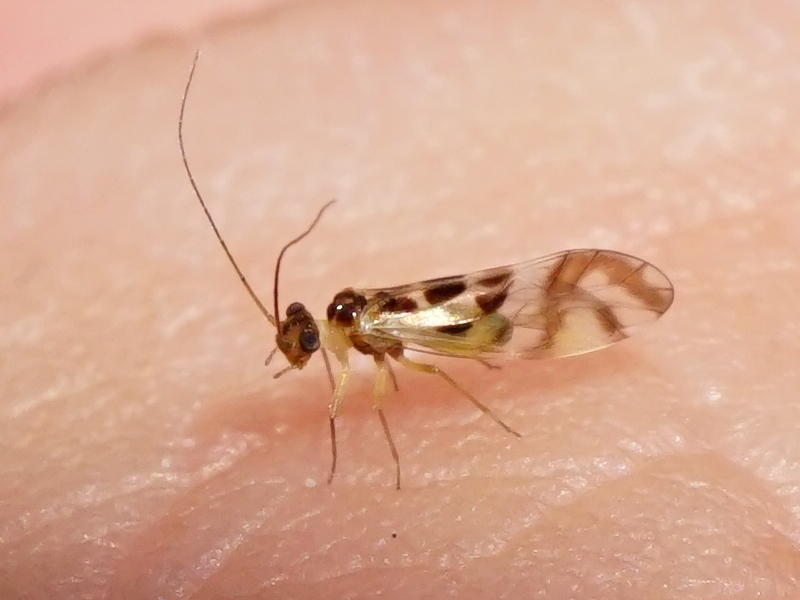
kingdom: Animalia
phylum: Arthropoda
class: Insecta
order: Psocodea
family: Stenopsocidae
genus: Graphopsocus
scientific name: Graphopsocus cruciatus
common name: Lizard bark louse
